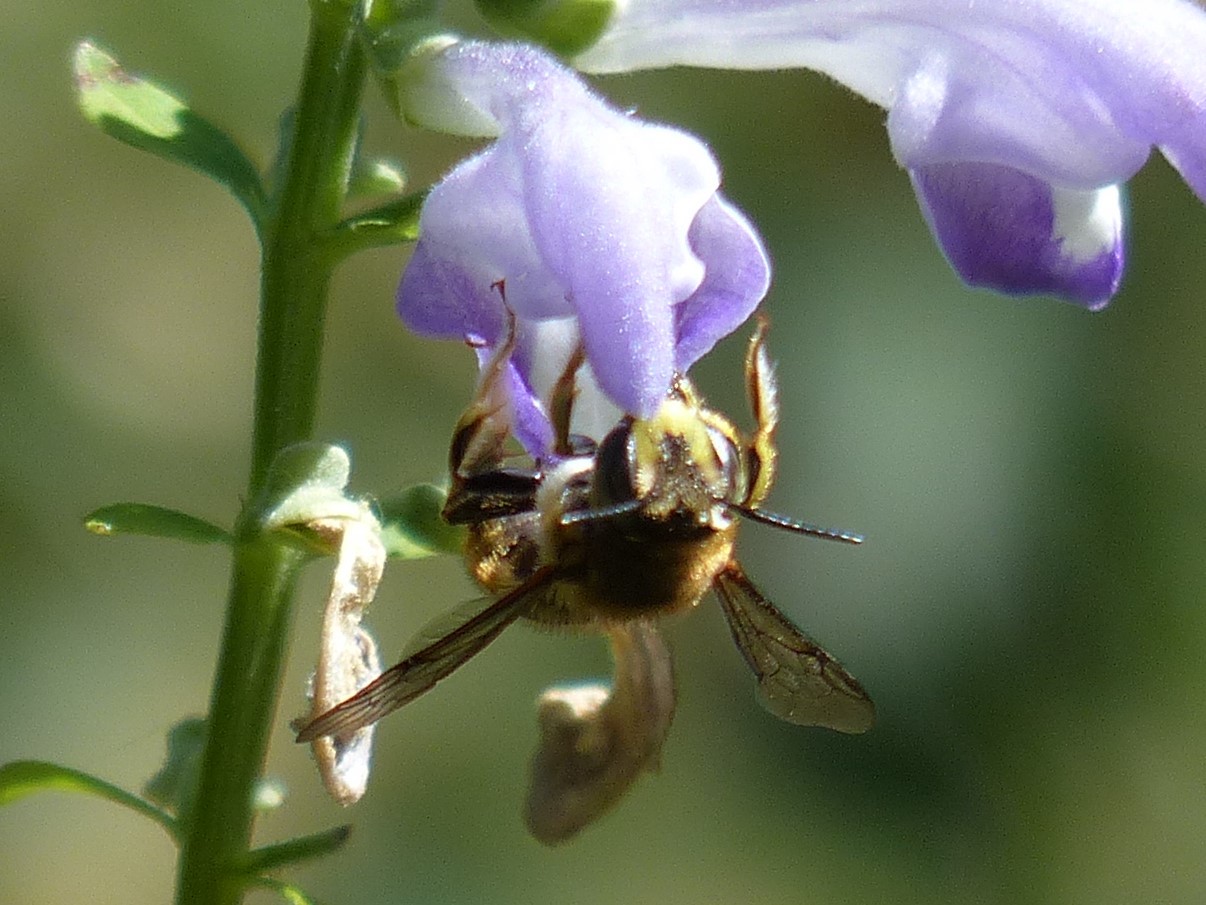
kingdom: Animalia
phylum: Arthropoda
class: Insecta
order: Hymenoptera
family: Megachilidae
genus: Anthidium
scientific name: Anthidium manicatum
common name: Wool carder bee
